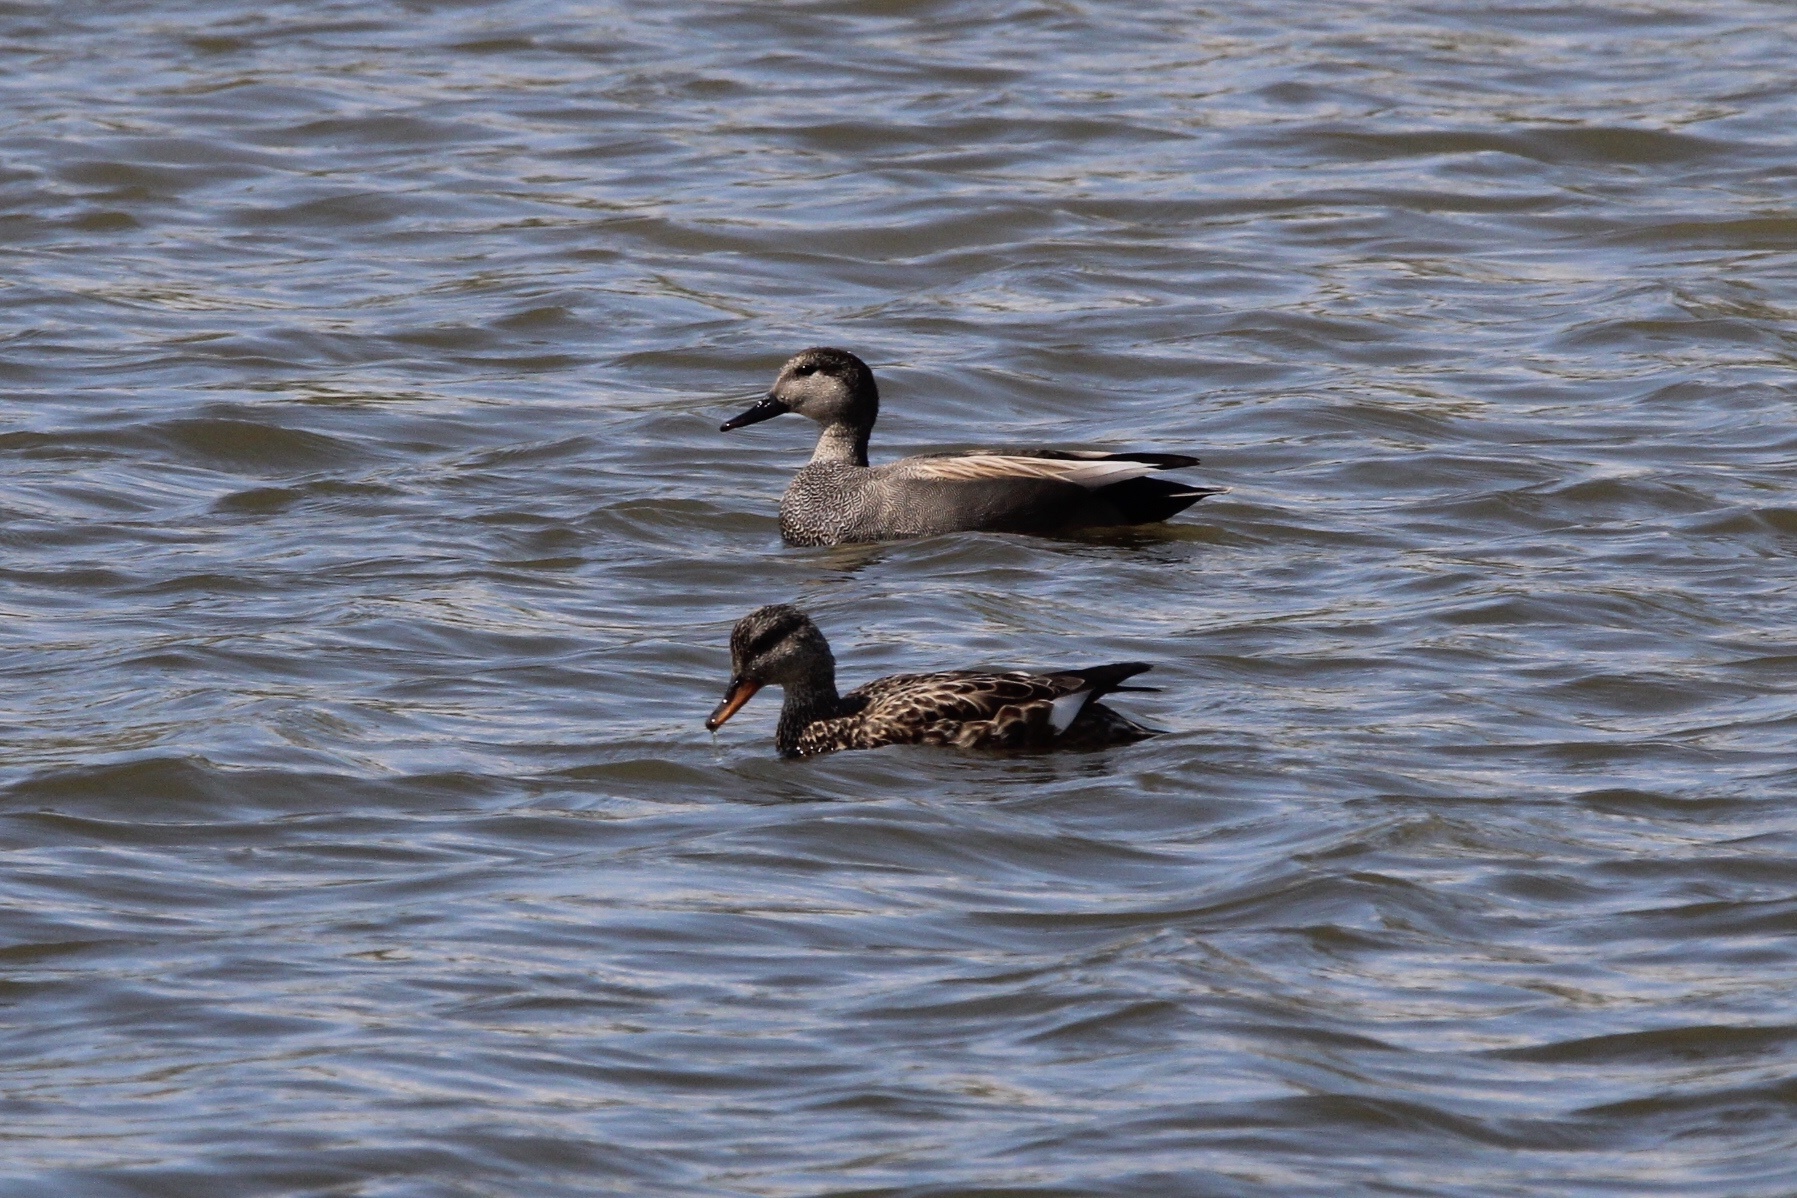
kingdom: Animalia
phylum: Chordata
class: Aves
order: Anseriformes
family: Anatidae
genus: Mareca
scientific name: Mareca strepera
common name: Gadwall
